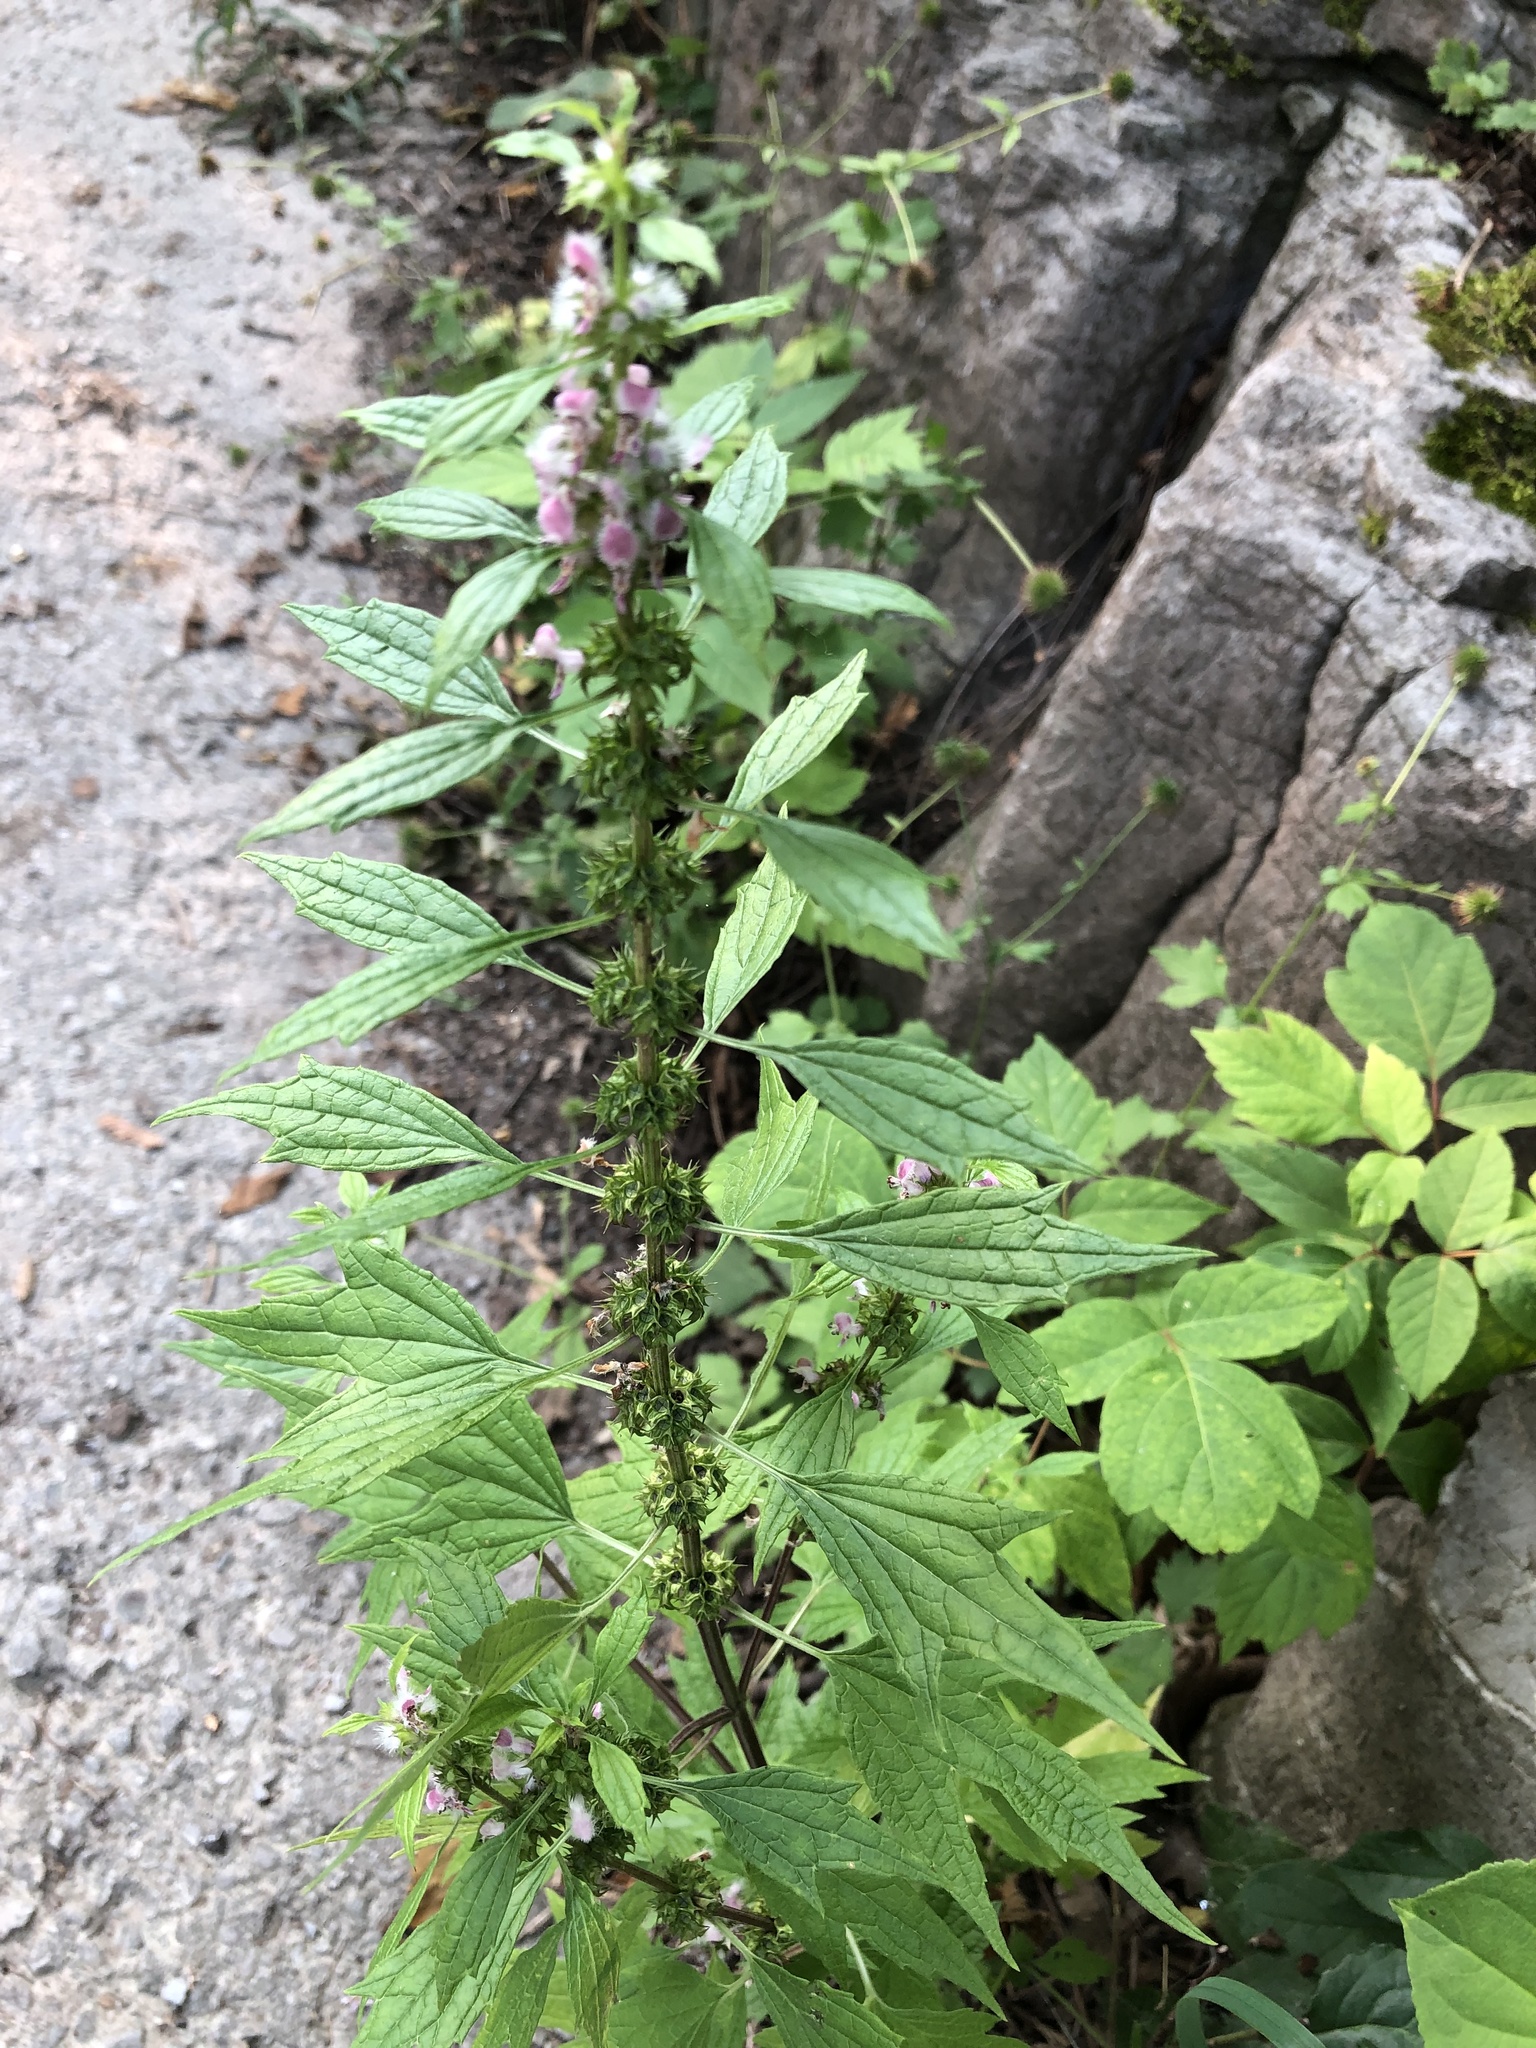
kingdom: Plantae
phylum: Tracheophyta
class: Magnoliopsida
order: Lamiales
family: Lamiaceae
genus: Leonurus
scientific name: Leonurus cardiaca
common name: Motherwort
